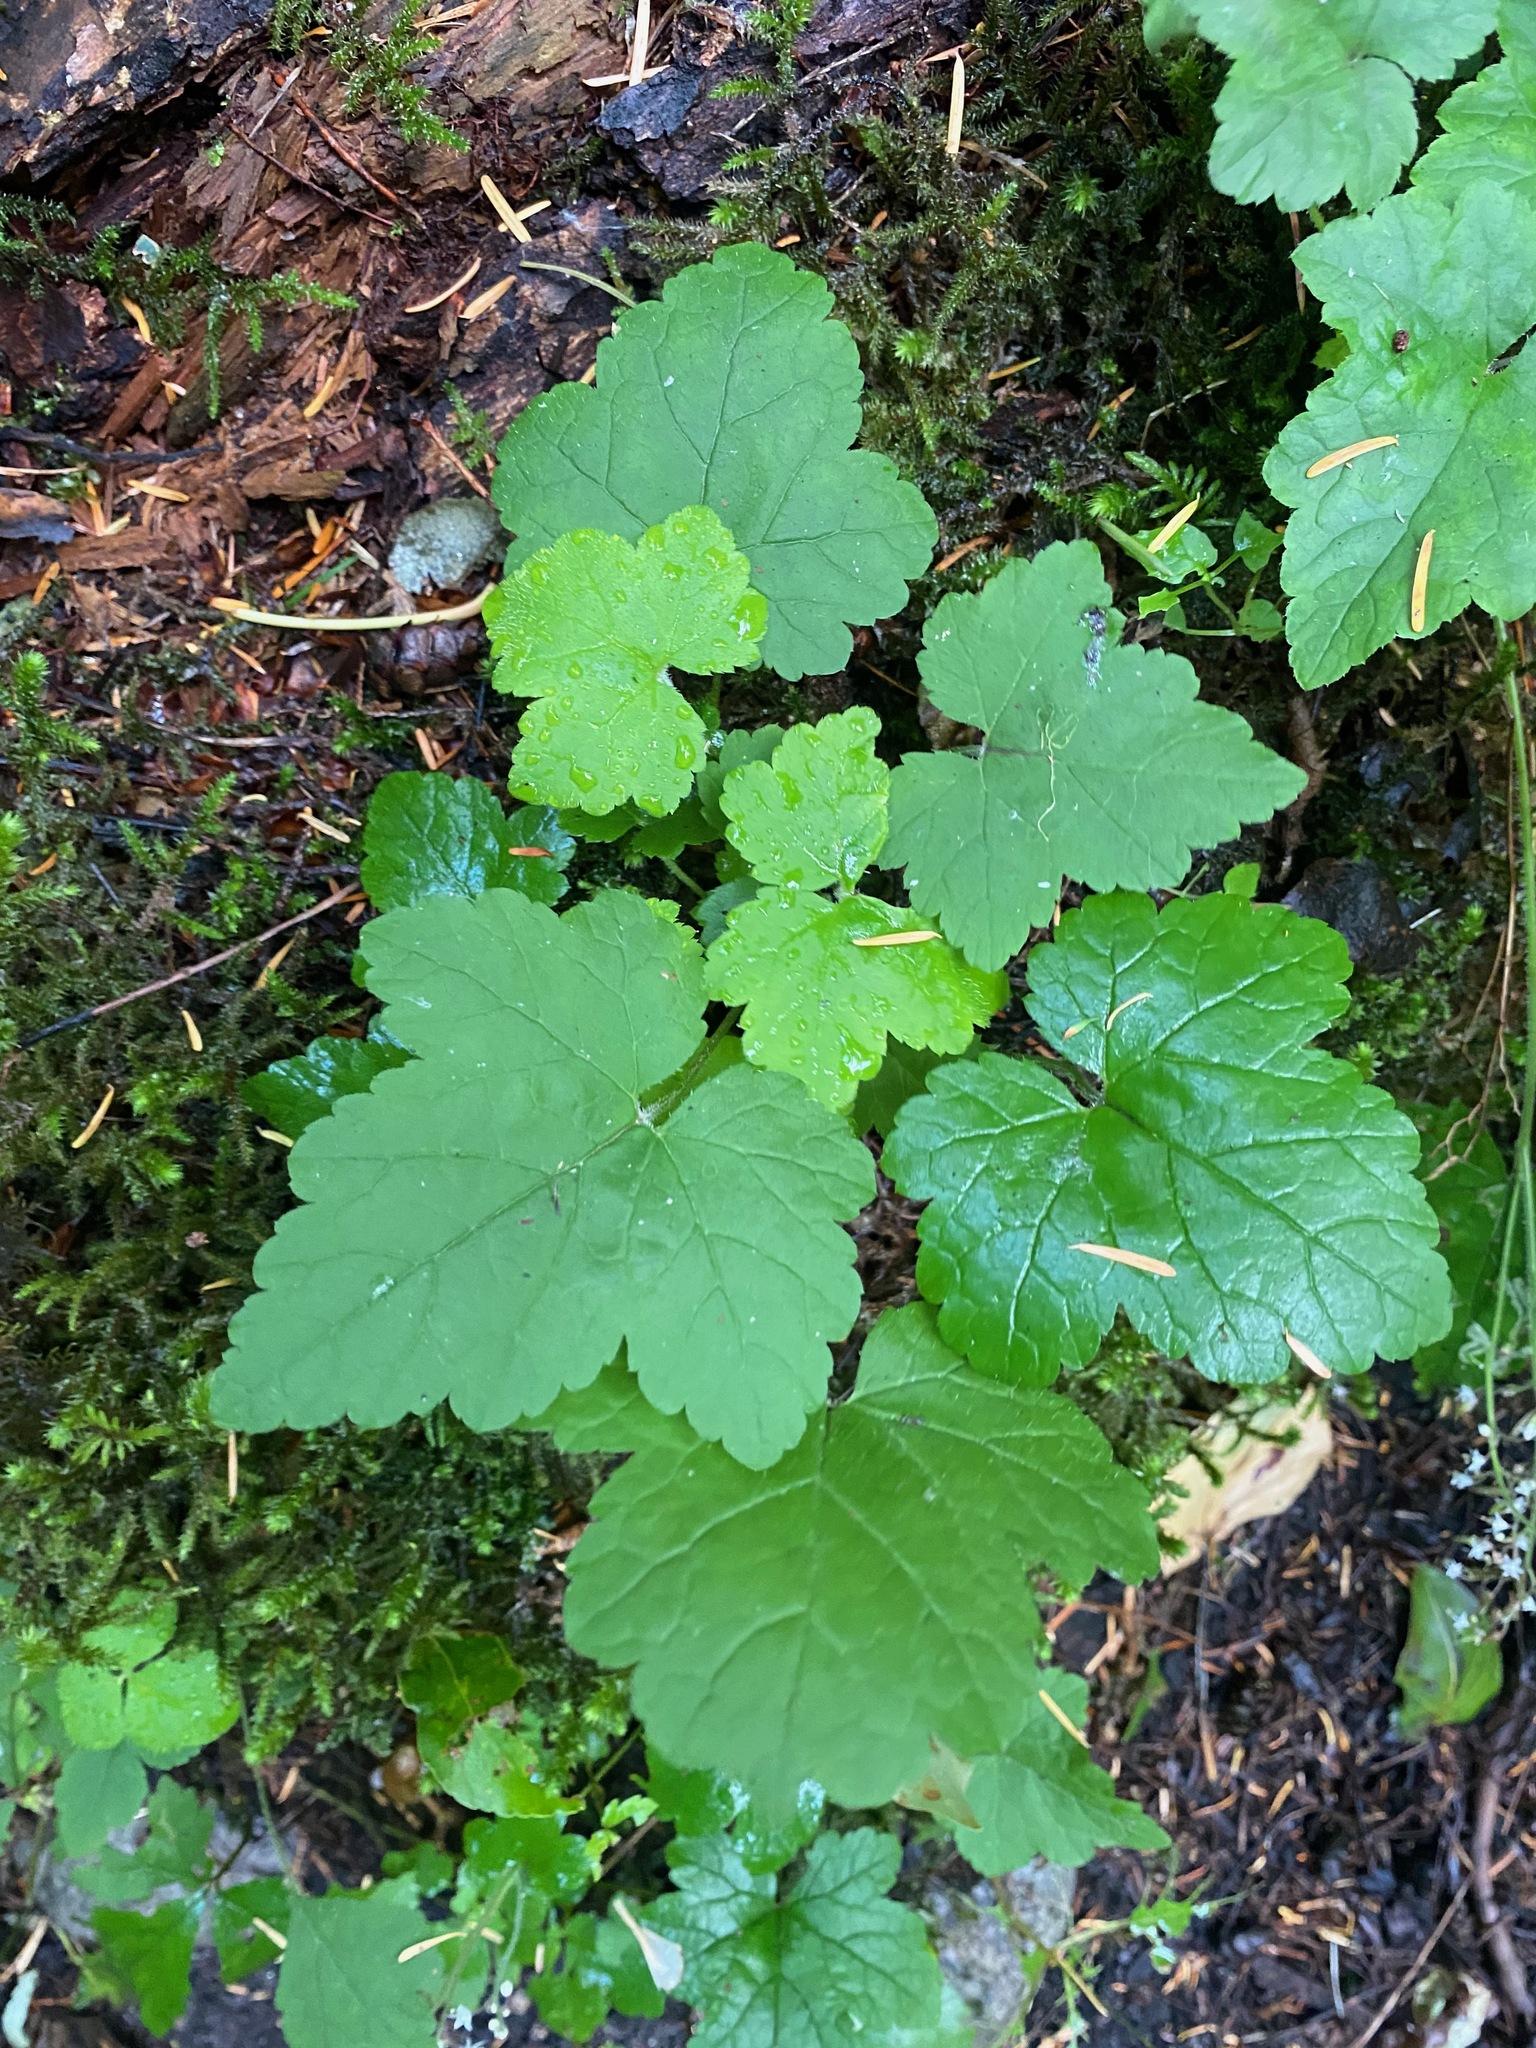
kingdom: Plantae
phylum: Tracheophyta
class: Magnoliopsida
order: Saxifragales
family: Saxifragaceae
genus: Tiarella
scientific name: Tiarella trifoliata
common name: Sugar-scoop
